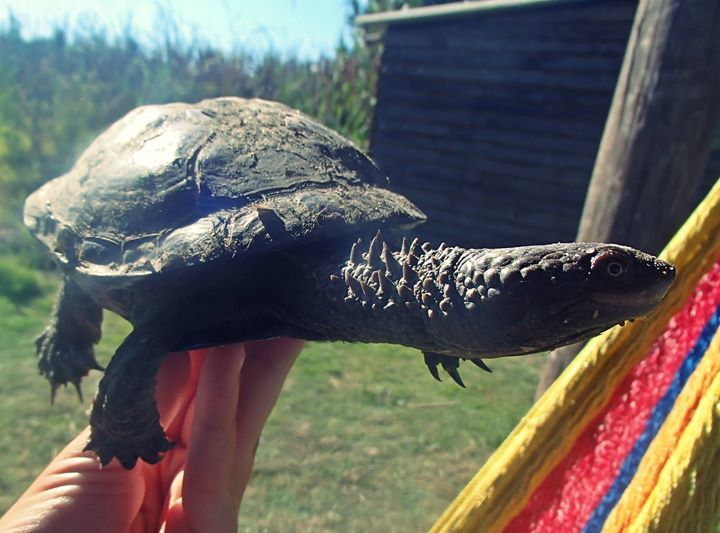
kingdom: Animalia
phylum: Chordata
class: Testudines
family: Chelidae
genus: Acanthochelys
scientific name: Acanthochelys spixii
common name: Black spine-neck swamp turtle
